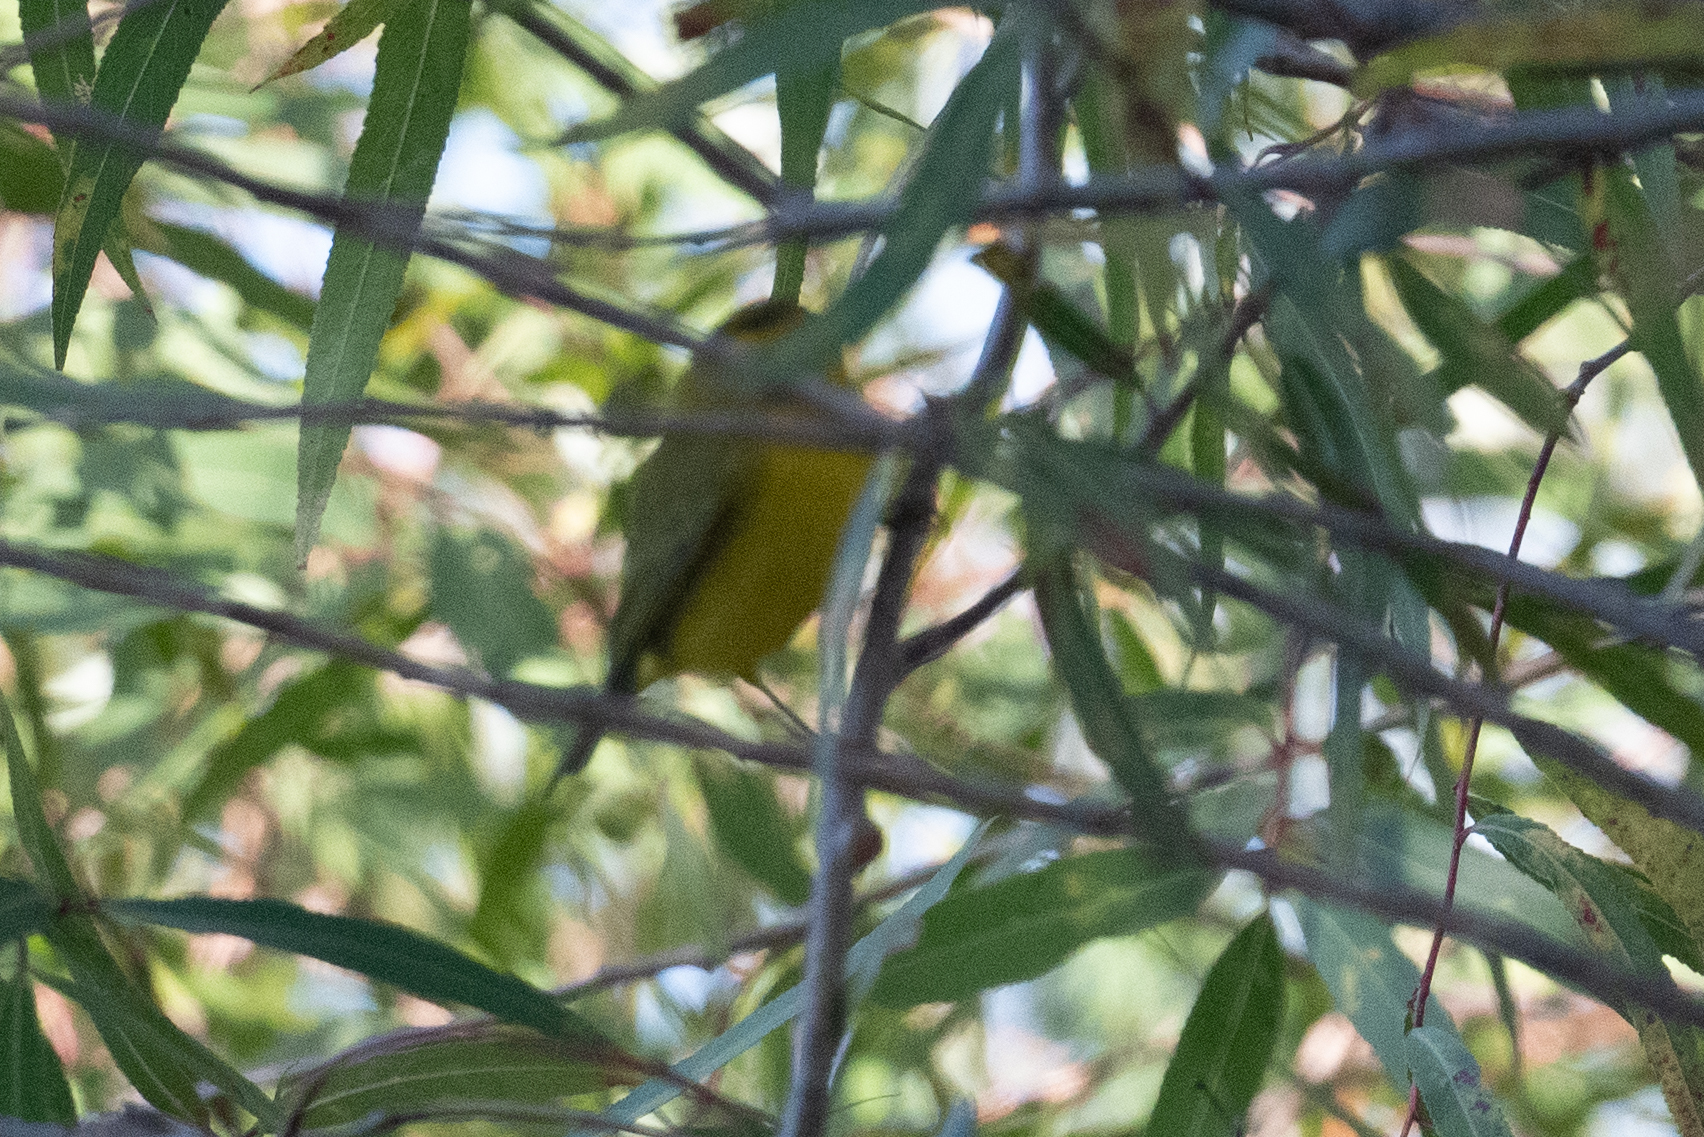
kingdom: Animalia
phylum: Chordata
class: Aves
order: Passeriformes
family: Parulidae
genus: Cardellina
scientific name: Cardellina pusilla
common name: Wilson's warbler
